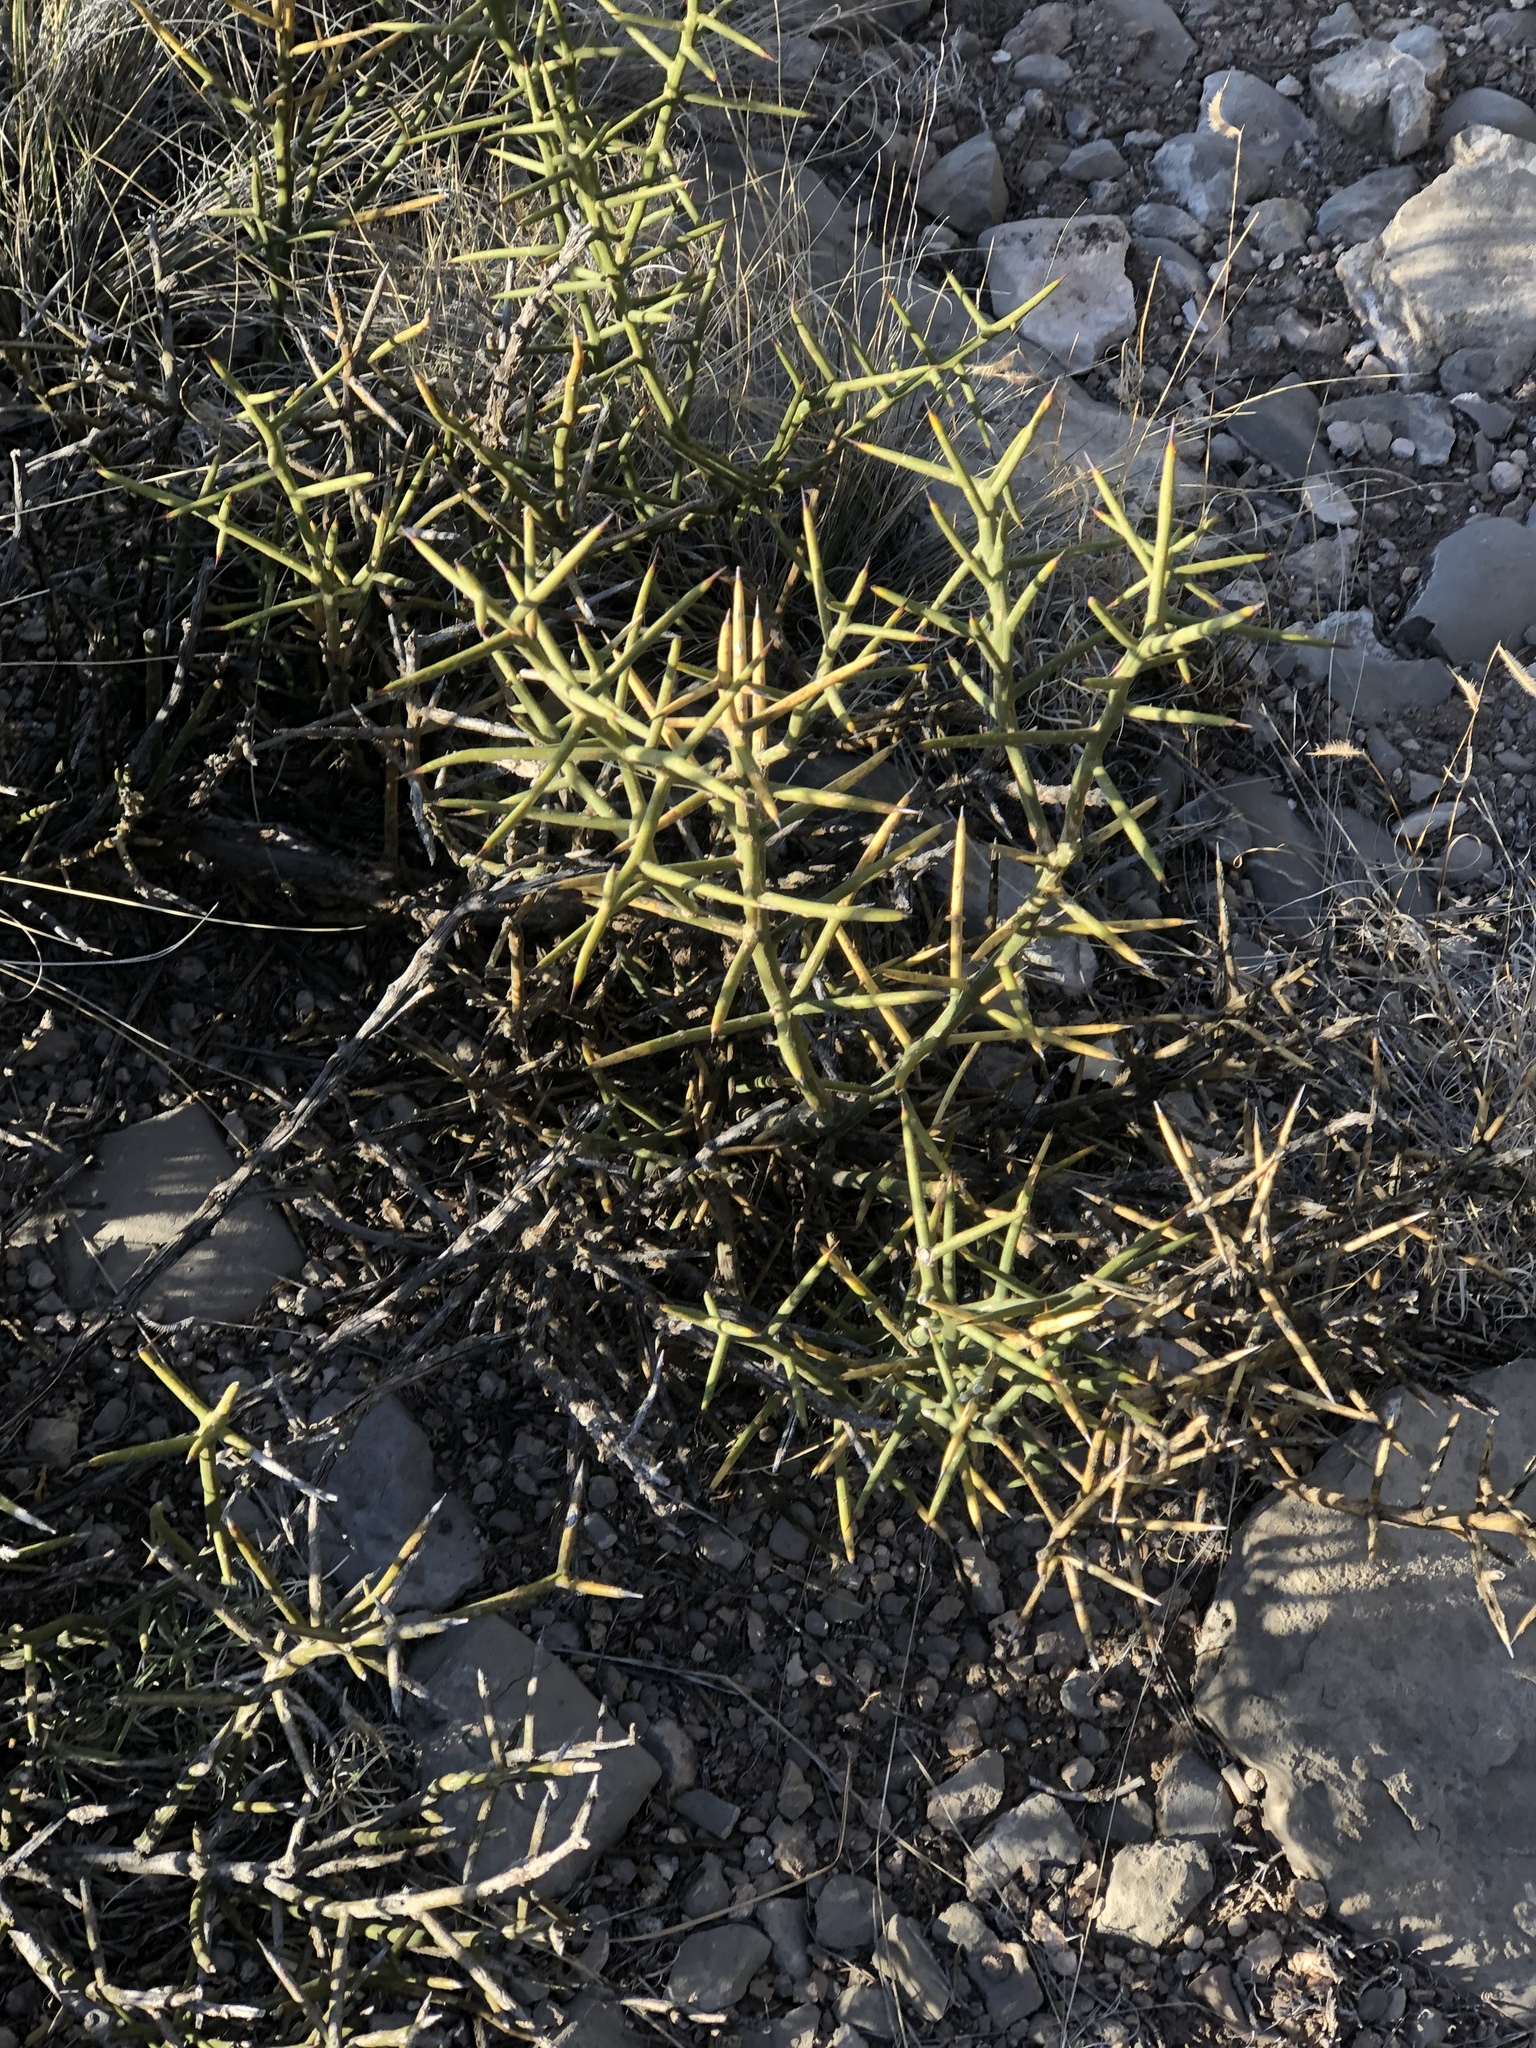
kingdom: Plantae
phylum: Tracheophyta
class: Magnoliopsida
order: Brassicales
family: Koeberliniaceae
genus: Koeberlinia
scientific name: Koeberlinia spinosa
